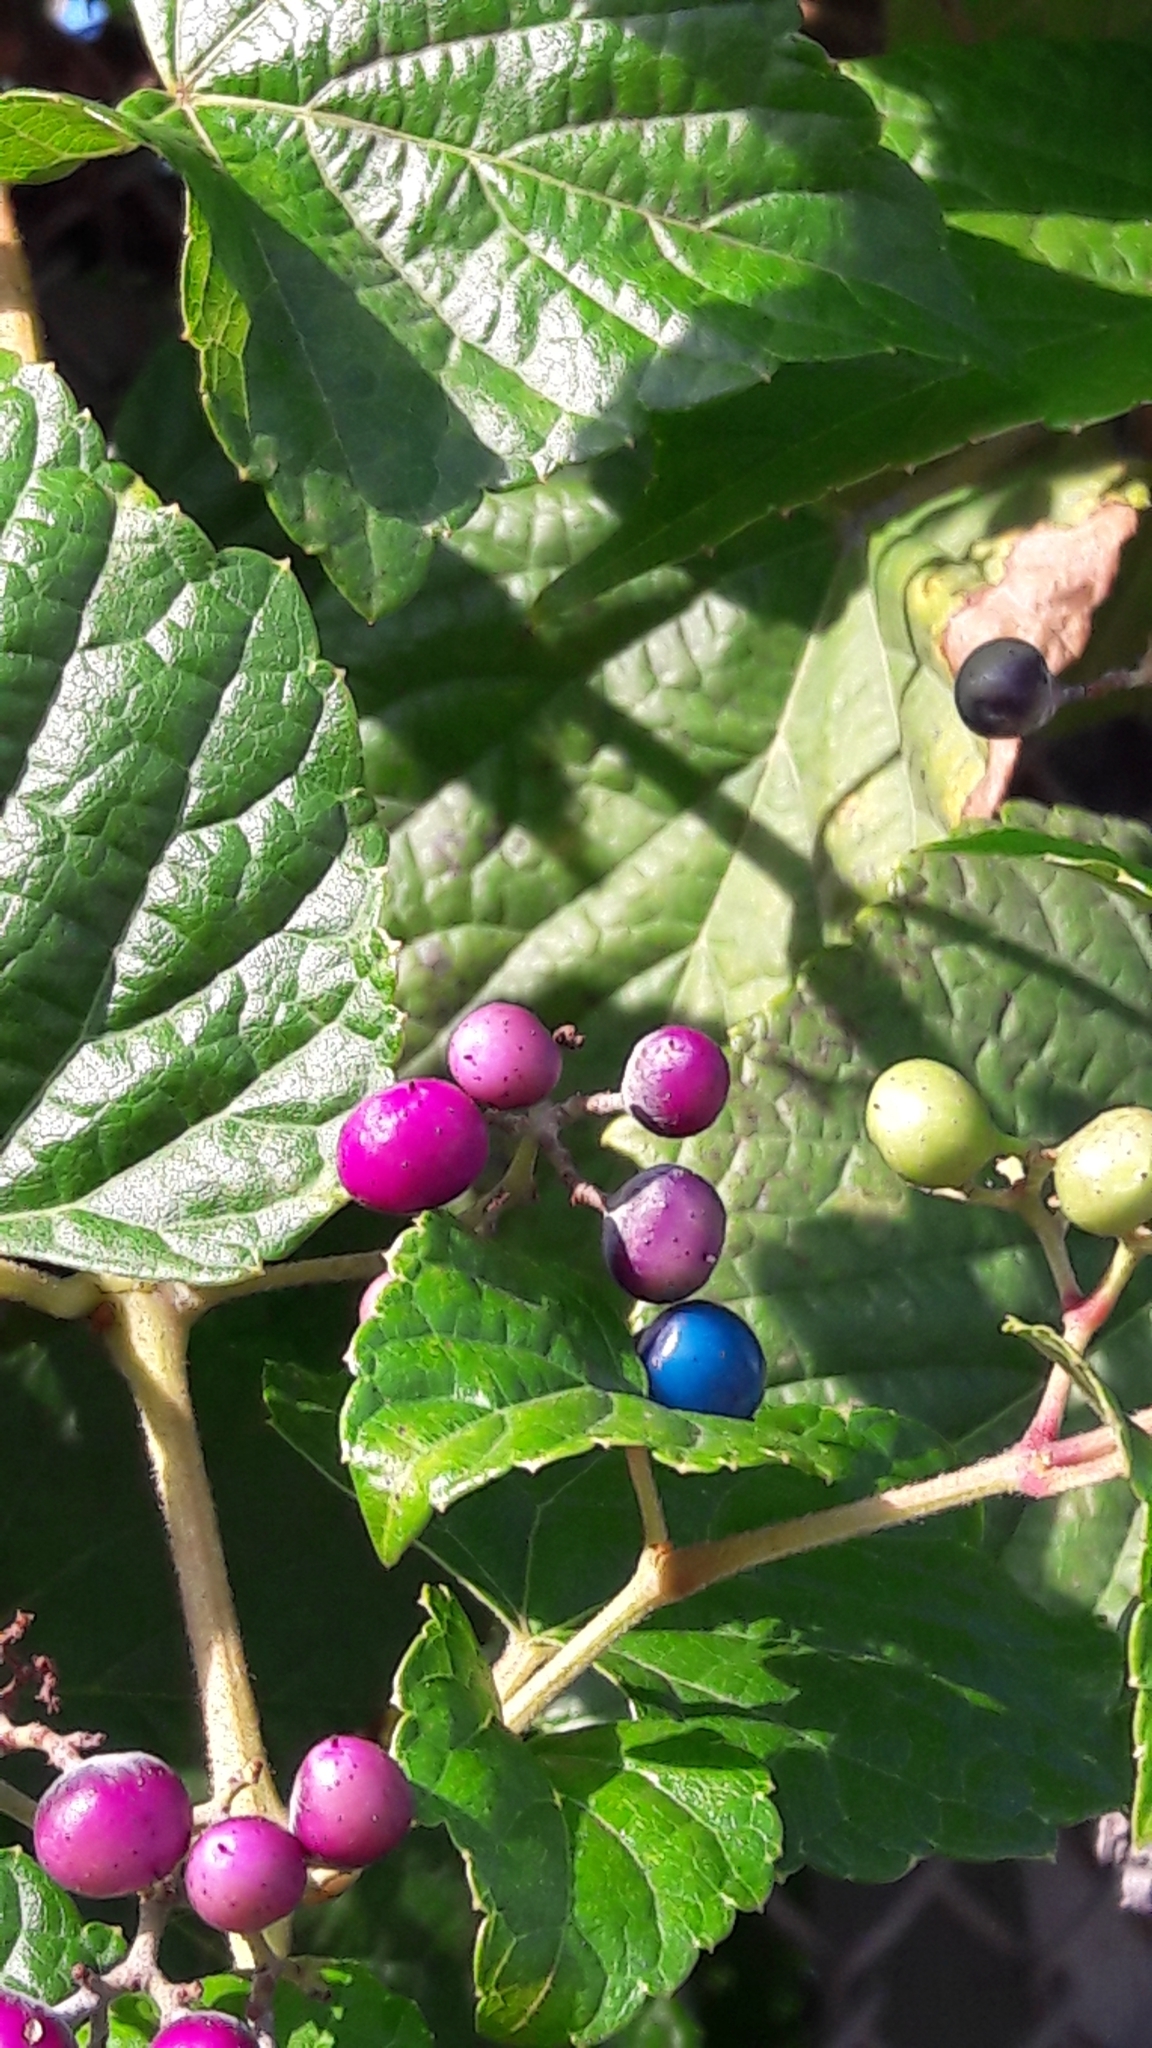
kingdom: Plantae
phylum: Tracheophyta
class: Magnoliopsida
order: Vitales
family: Vitaceae
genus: Ampelopsis
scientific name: Ampelopsis glandulosa
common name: Amur peppervine
